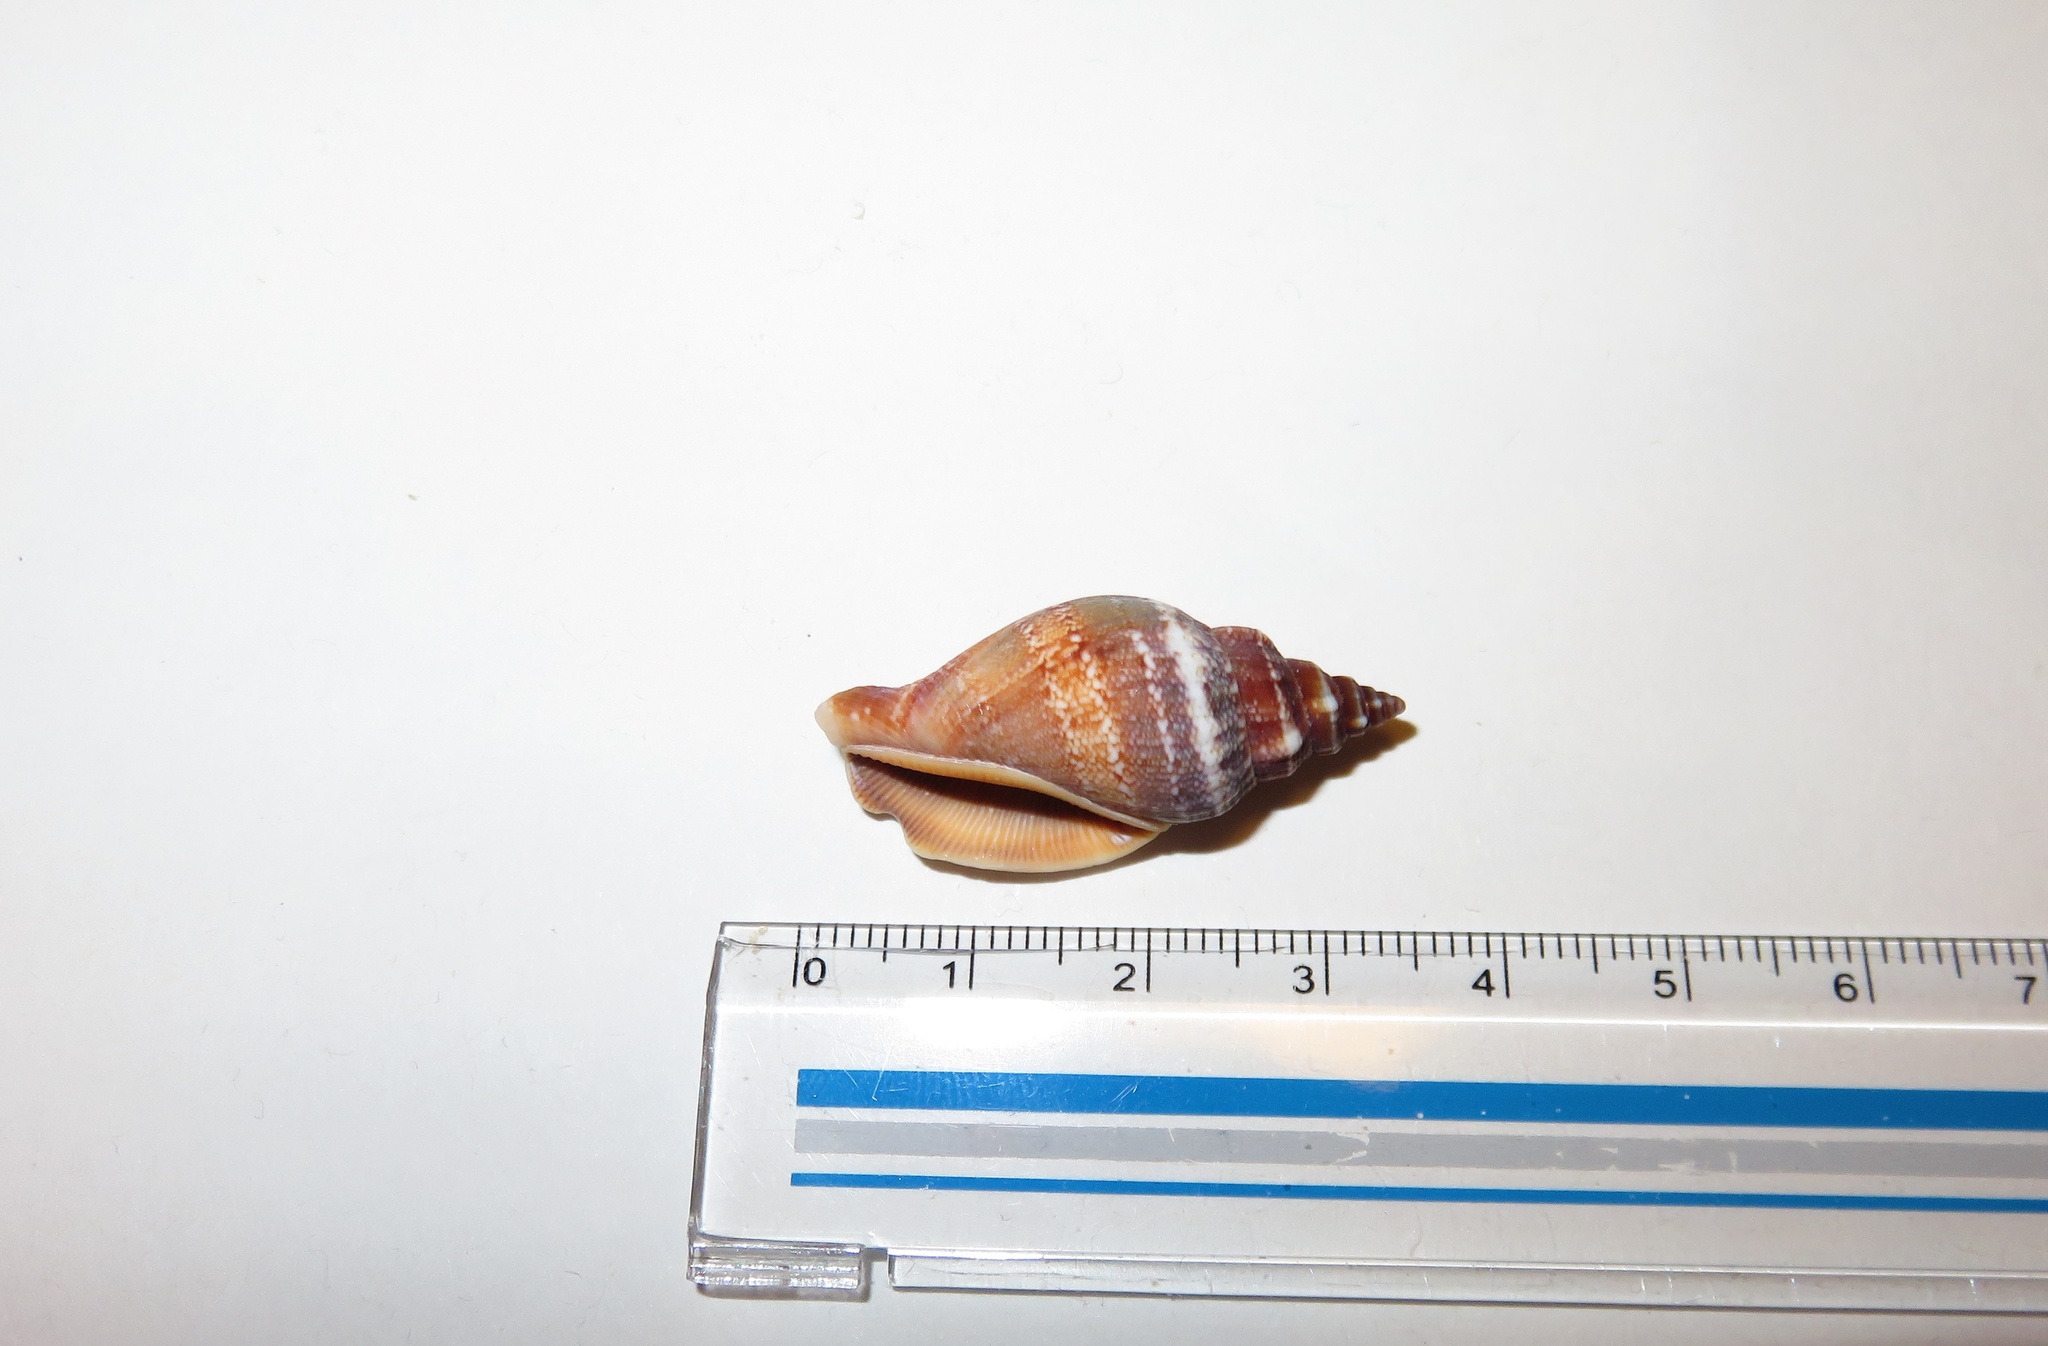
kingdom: Animalia
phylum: Mollusca
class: Gastropoda
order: Littorinimorpha
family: Strombidae
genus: Canarium
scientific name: Canarium urceus
